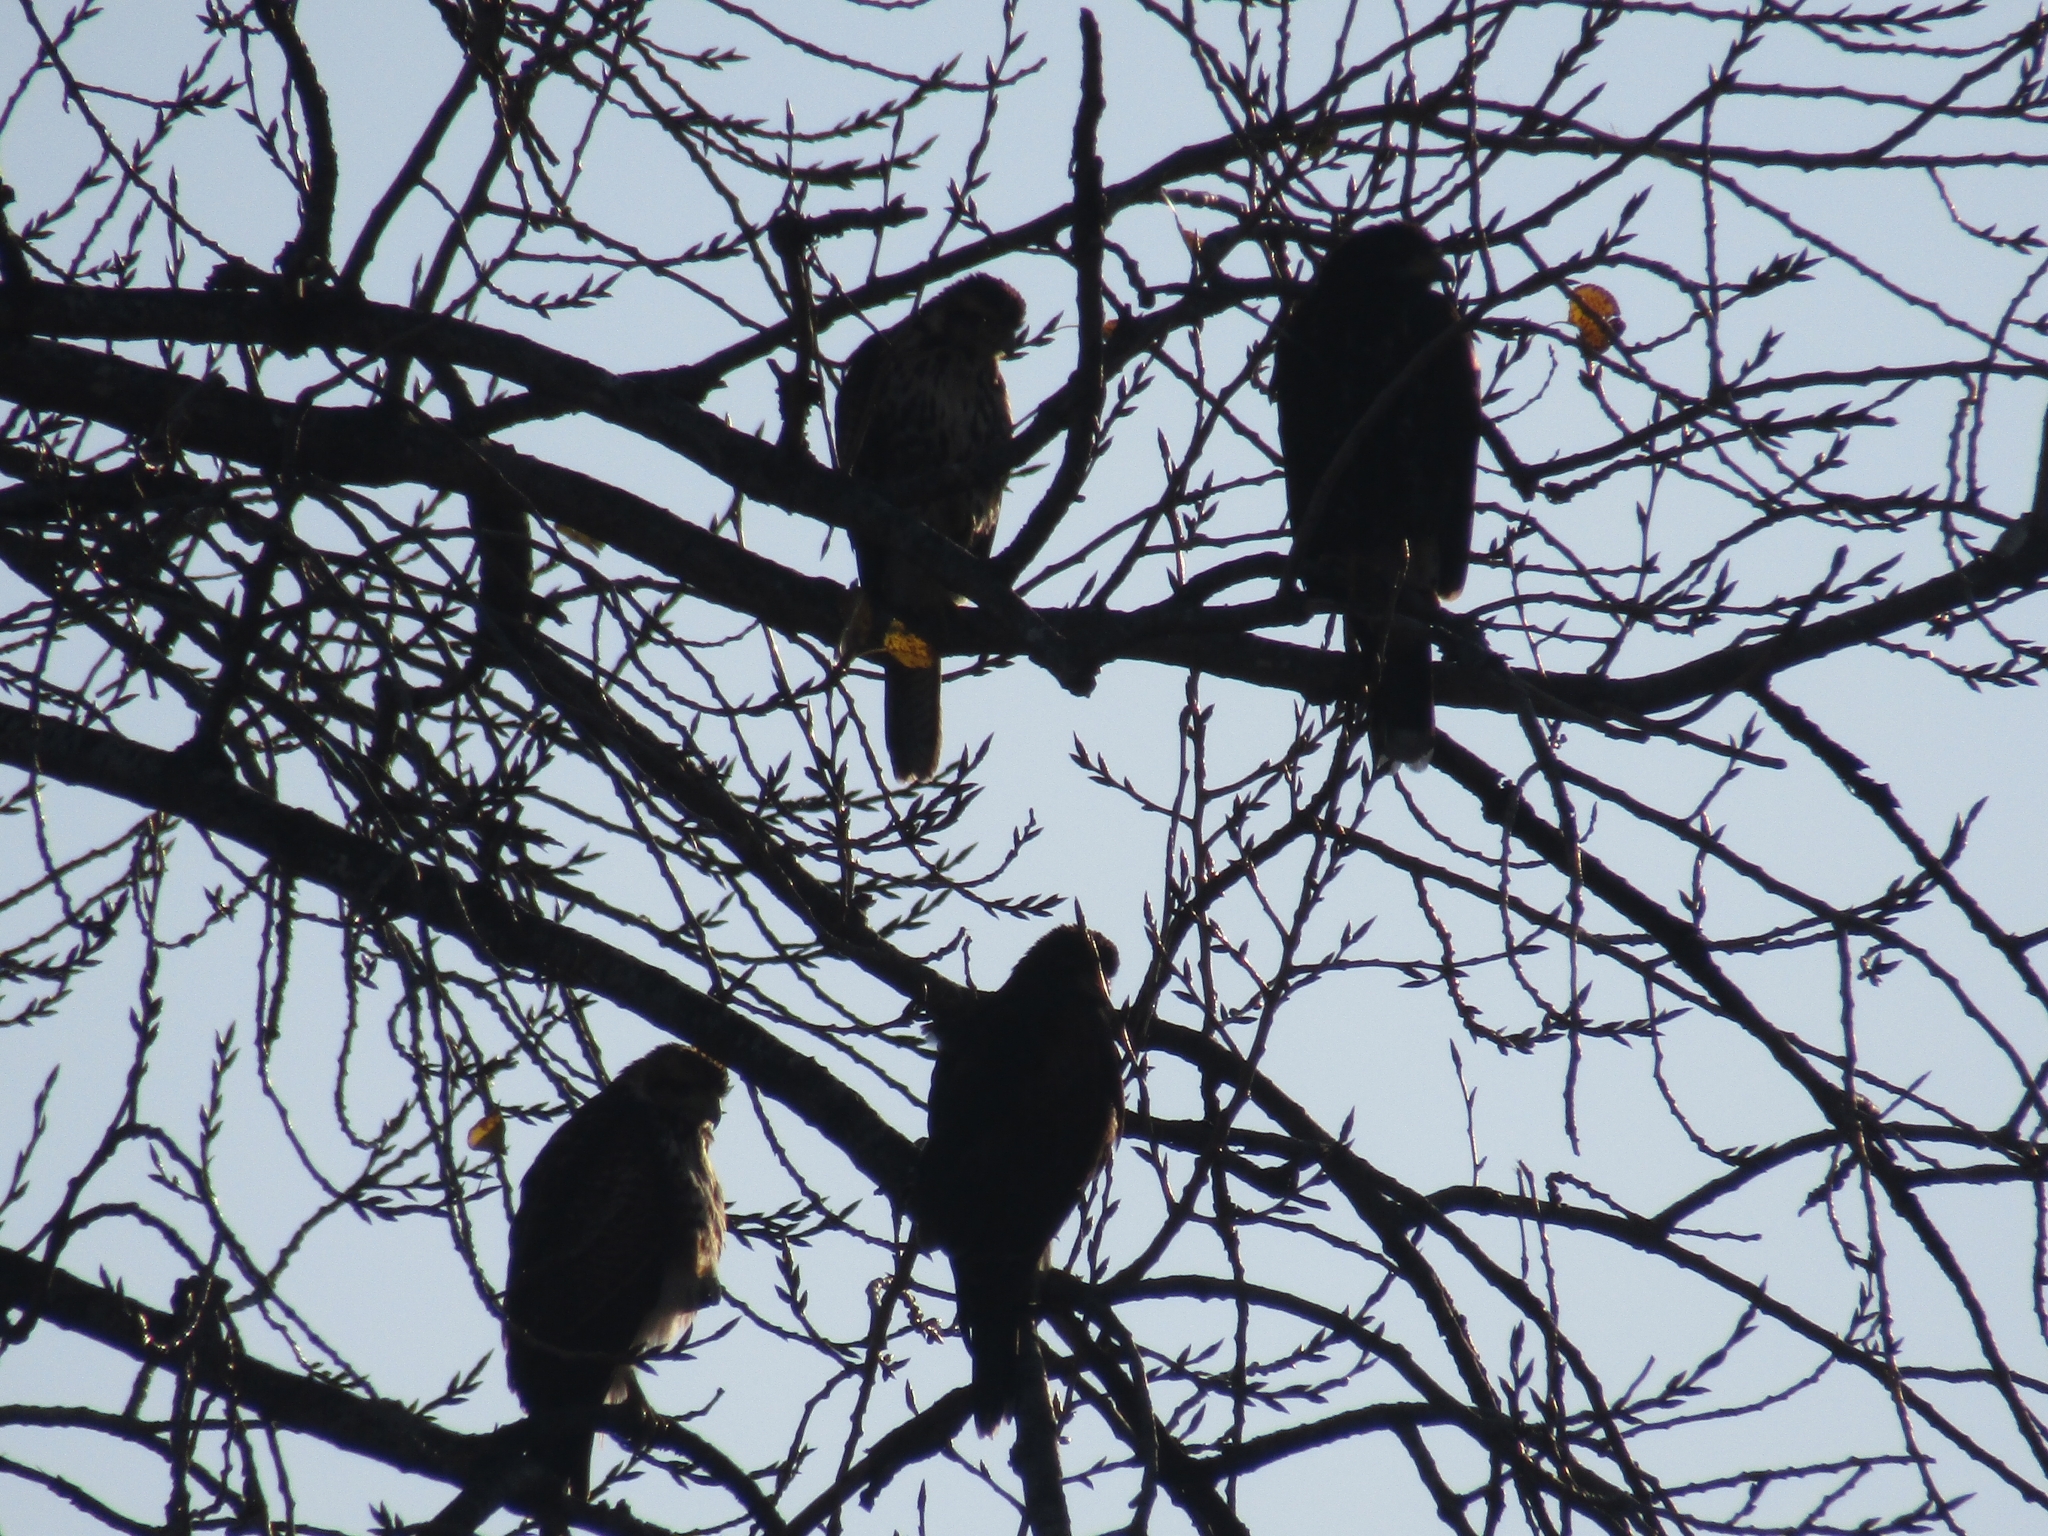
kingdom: Animalia
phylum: Chordata
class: Aves
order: Accipitriformes
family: Accipitridae
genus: Parabuteo
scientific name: Parabuteo unicinctus
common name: Harris's hawk
